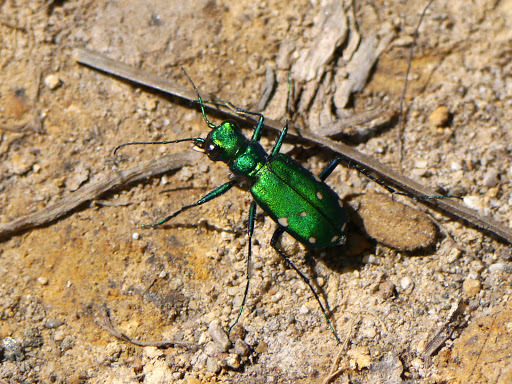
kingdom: Animalia
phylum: Arthropoda
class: Insecta
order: Coleoptera
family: Carabidae
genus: Cicindela
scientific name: Cicindela sexguttata
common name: Six-spotted tiger beetle
